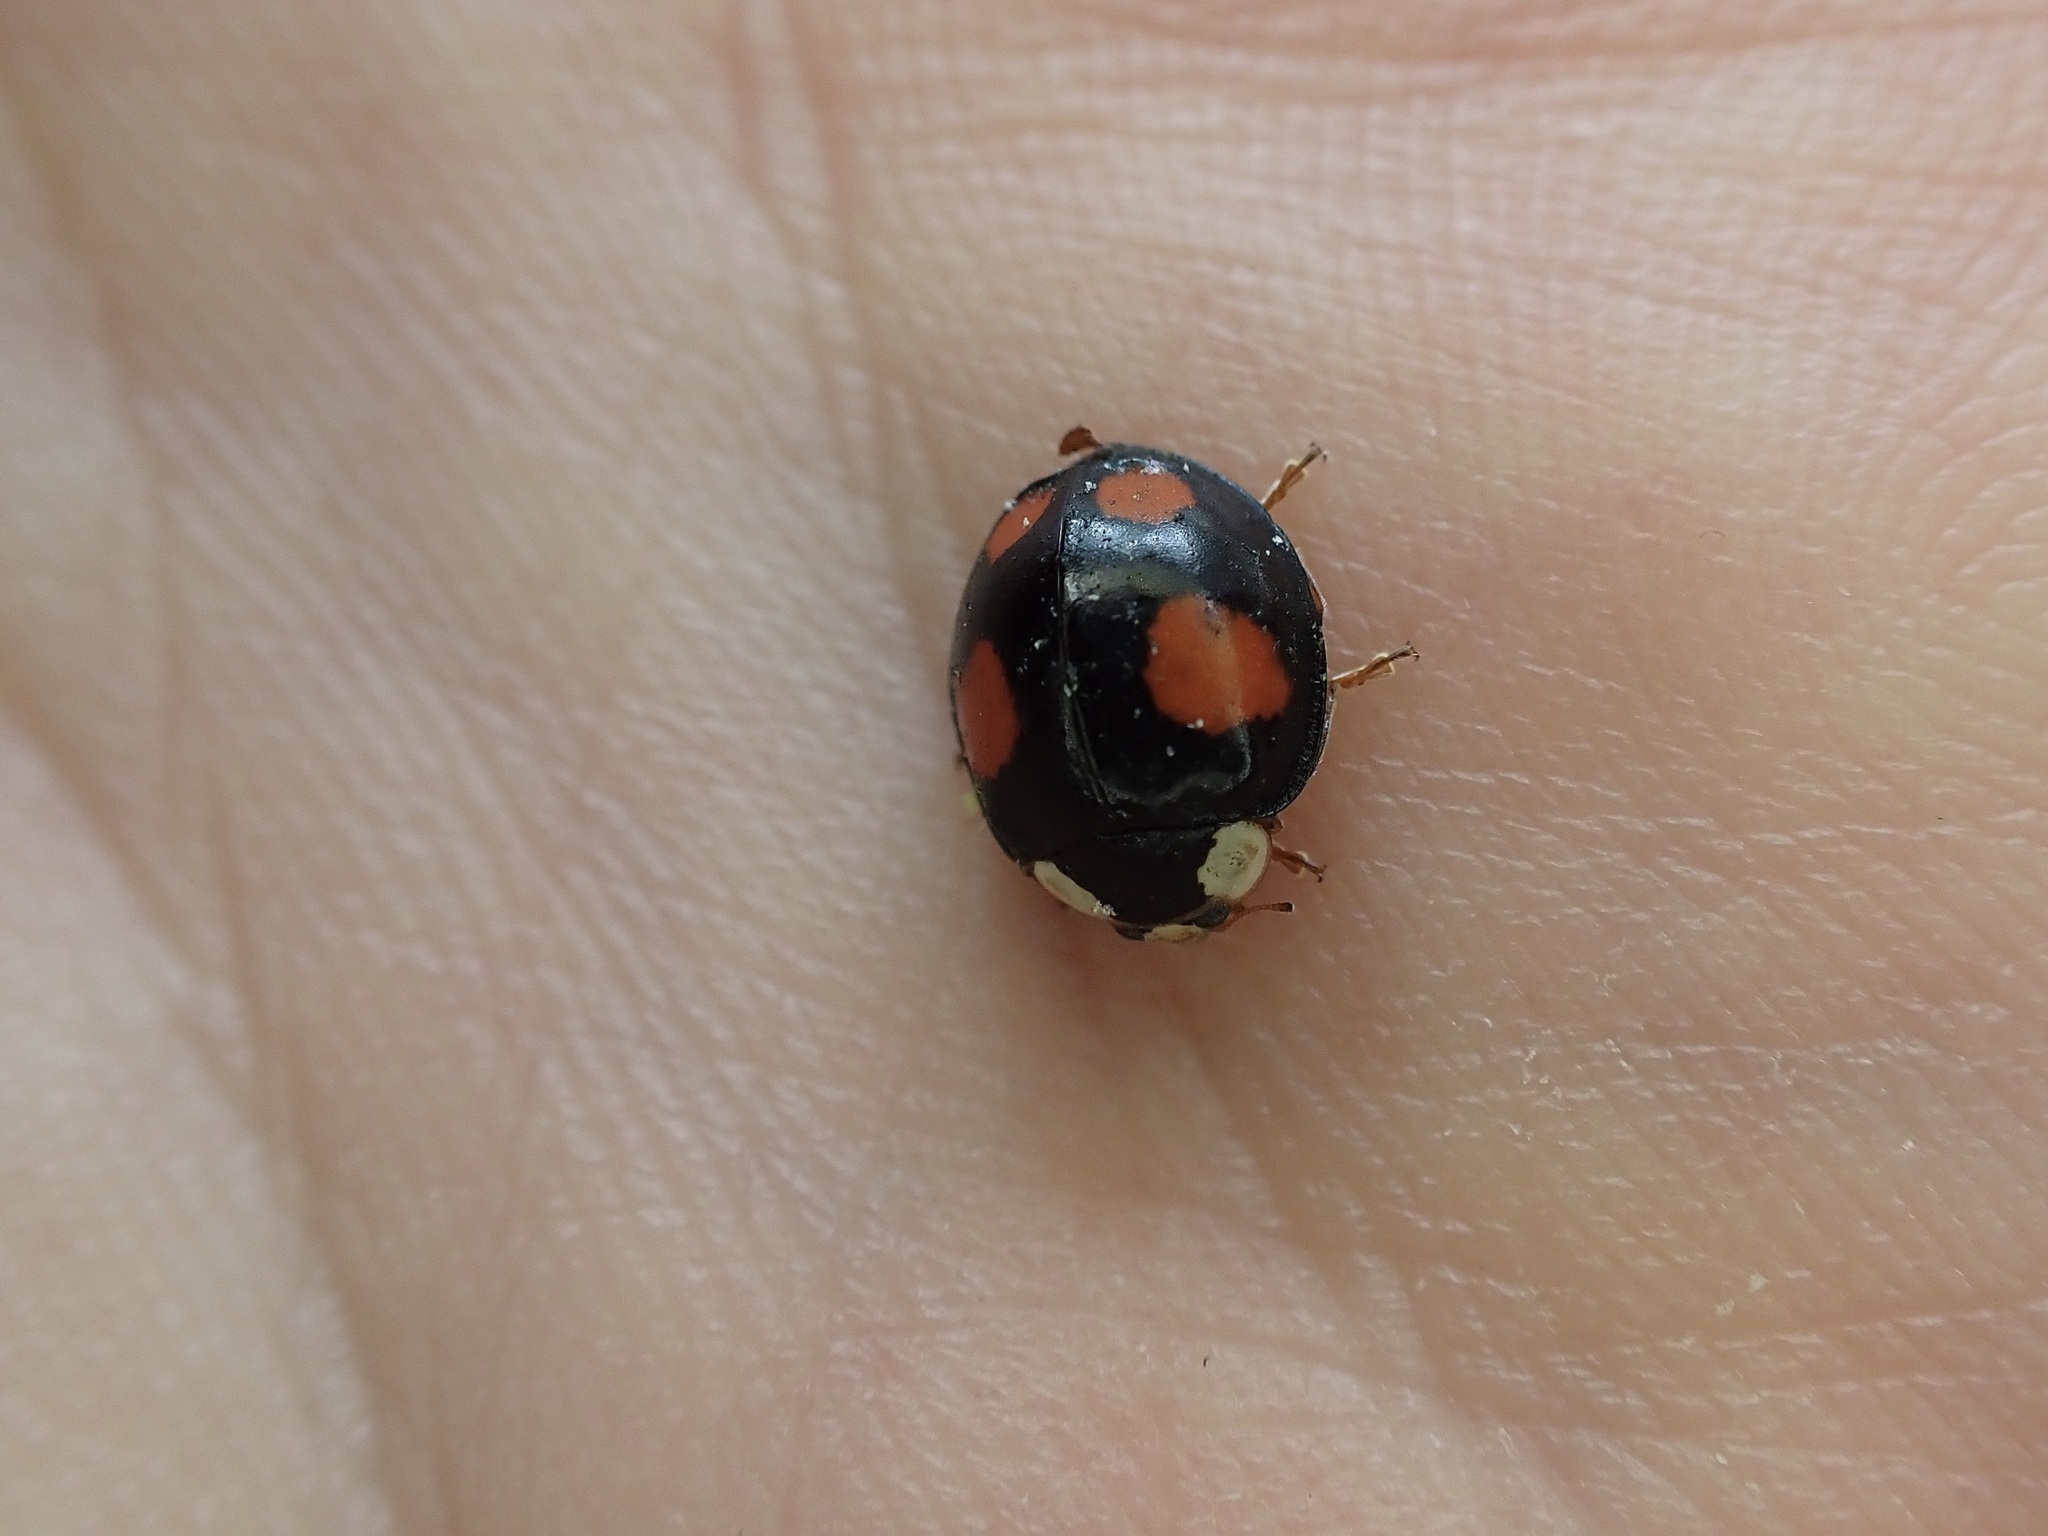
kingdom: Animalia
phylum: Arthropoda
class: Insecta
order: Coleoptera
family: Coccinellidae
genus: Harmonia
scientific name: Harmonia axyridis
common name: Harlequin ladybird
